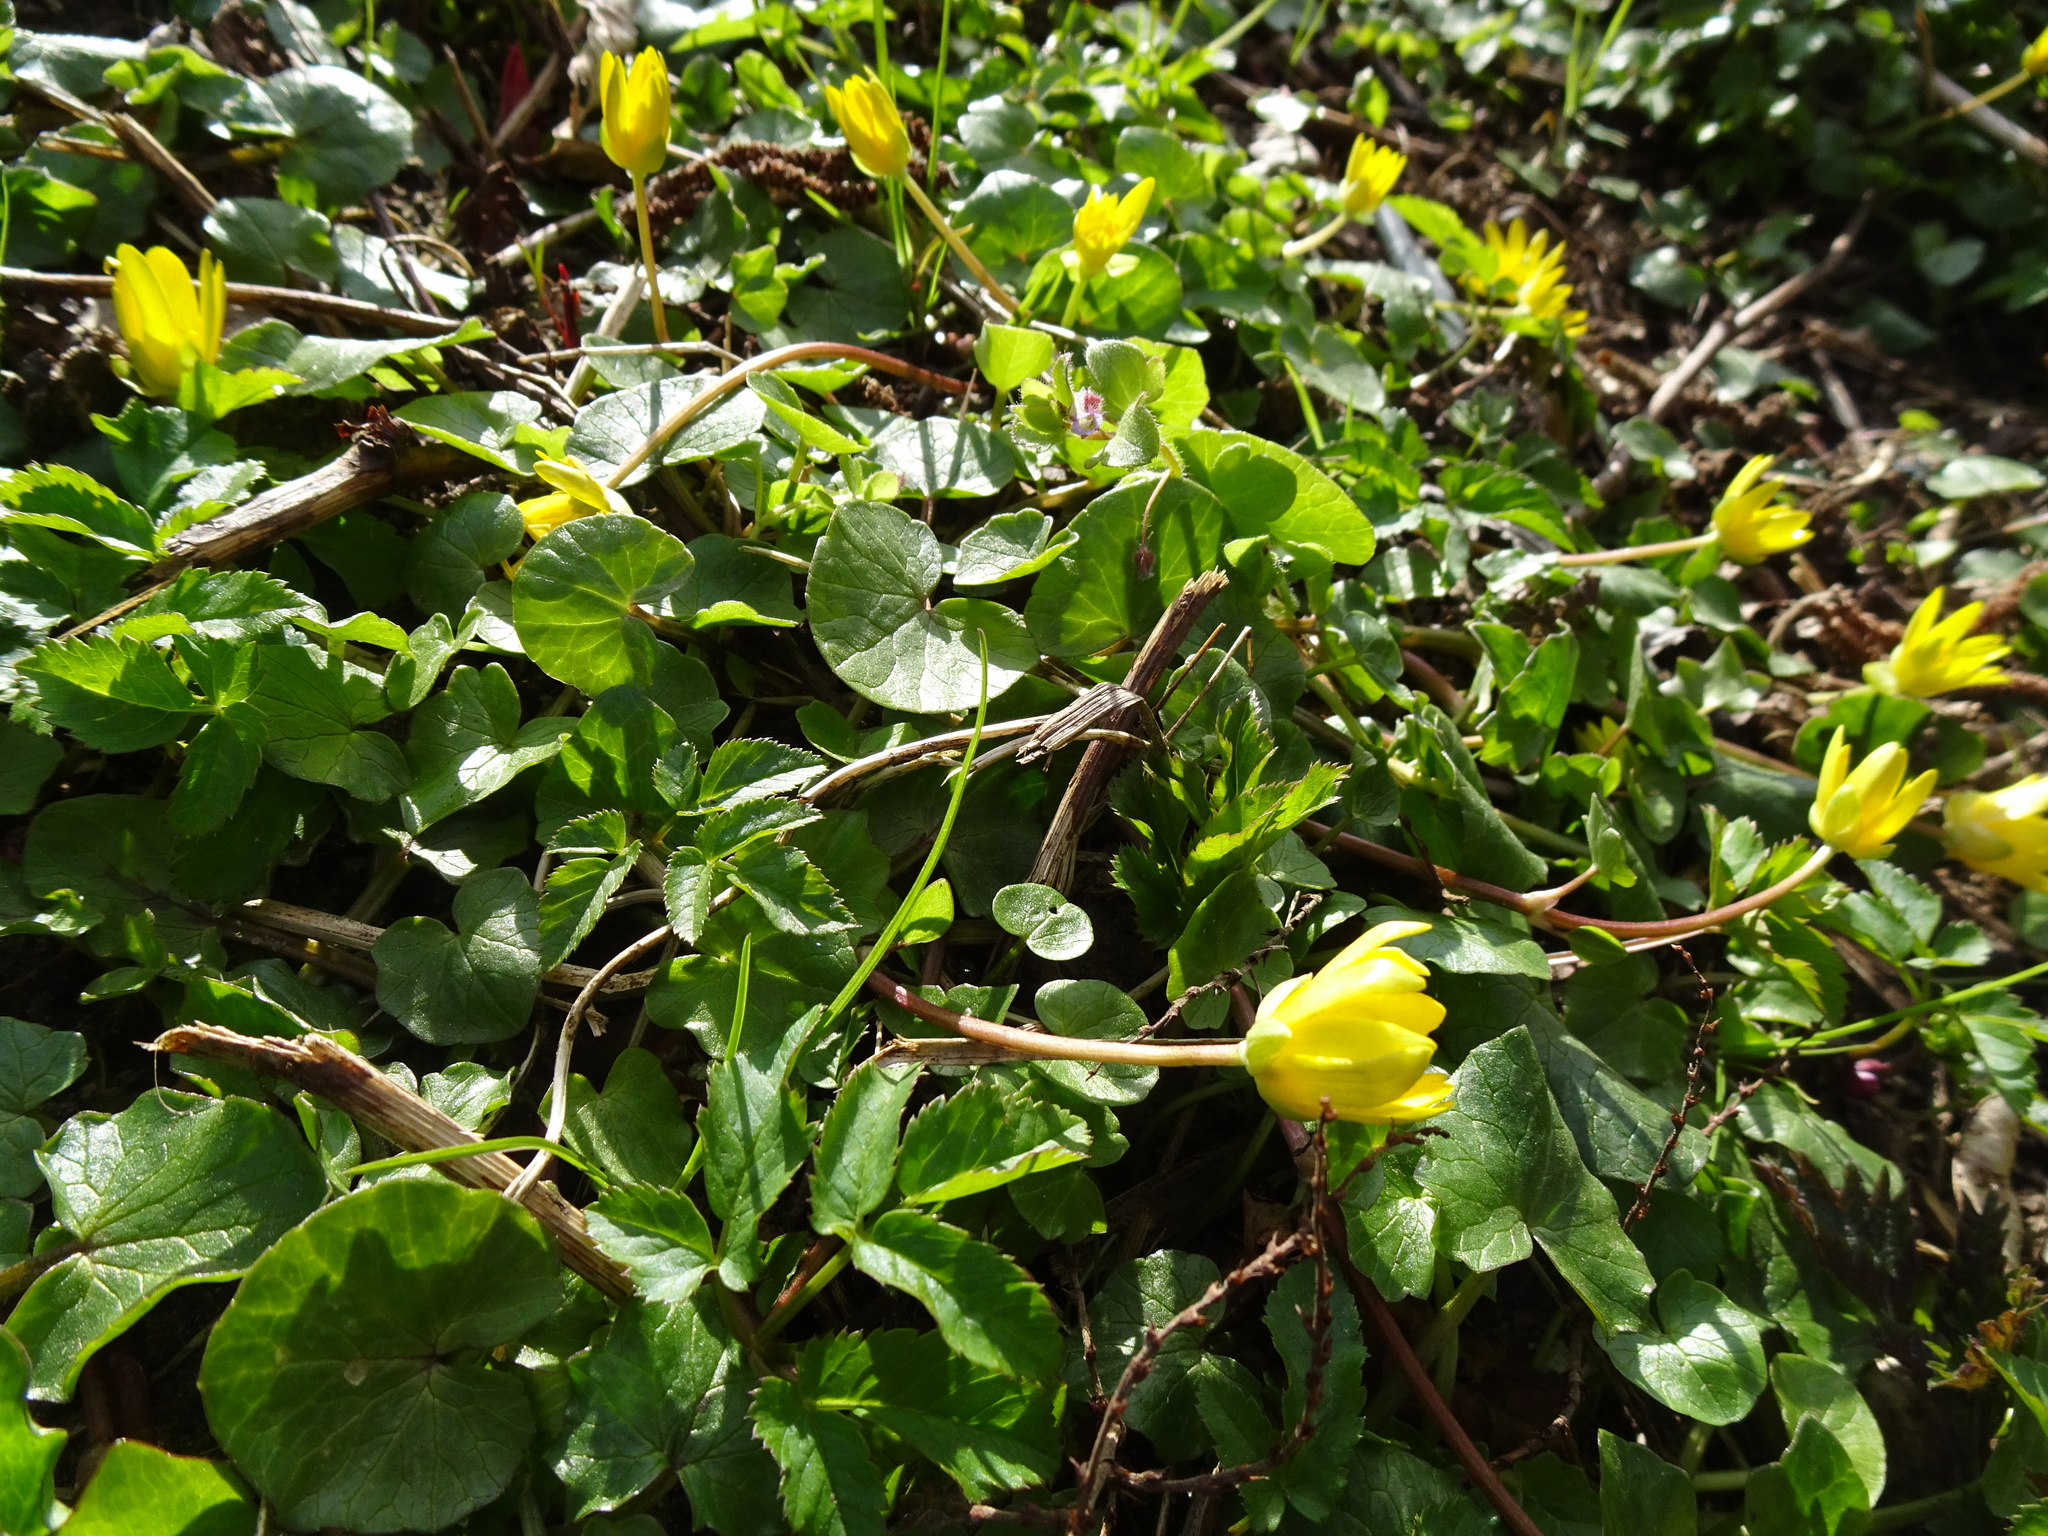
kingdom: Plantae
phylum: Tracheophyta
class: Magnoliopsida
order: Ranunculales
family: Ranunculaceae
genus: Ficaria
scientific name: Ficaria verna
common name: Lesser celandine
